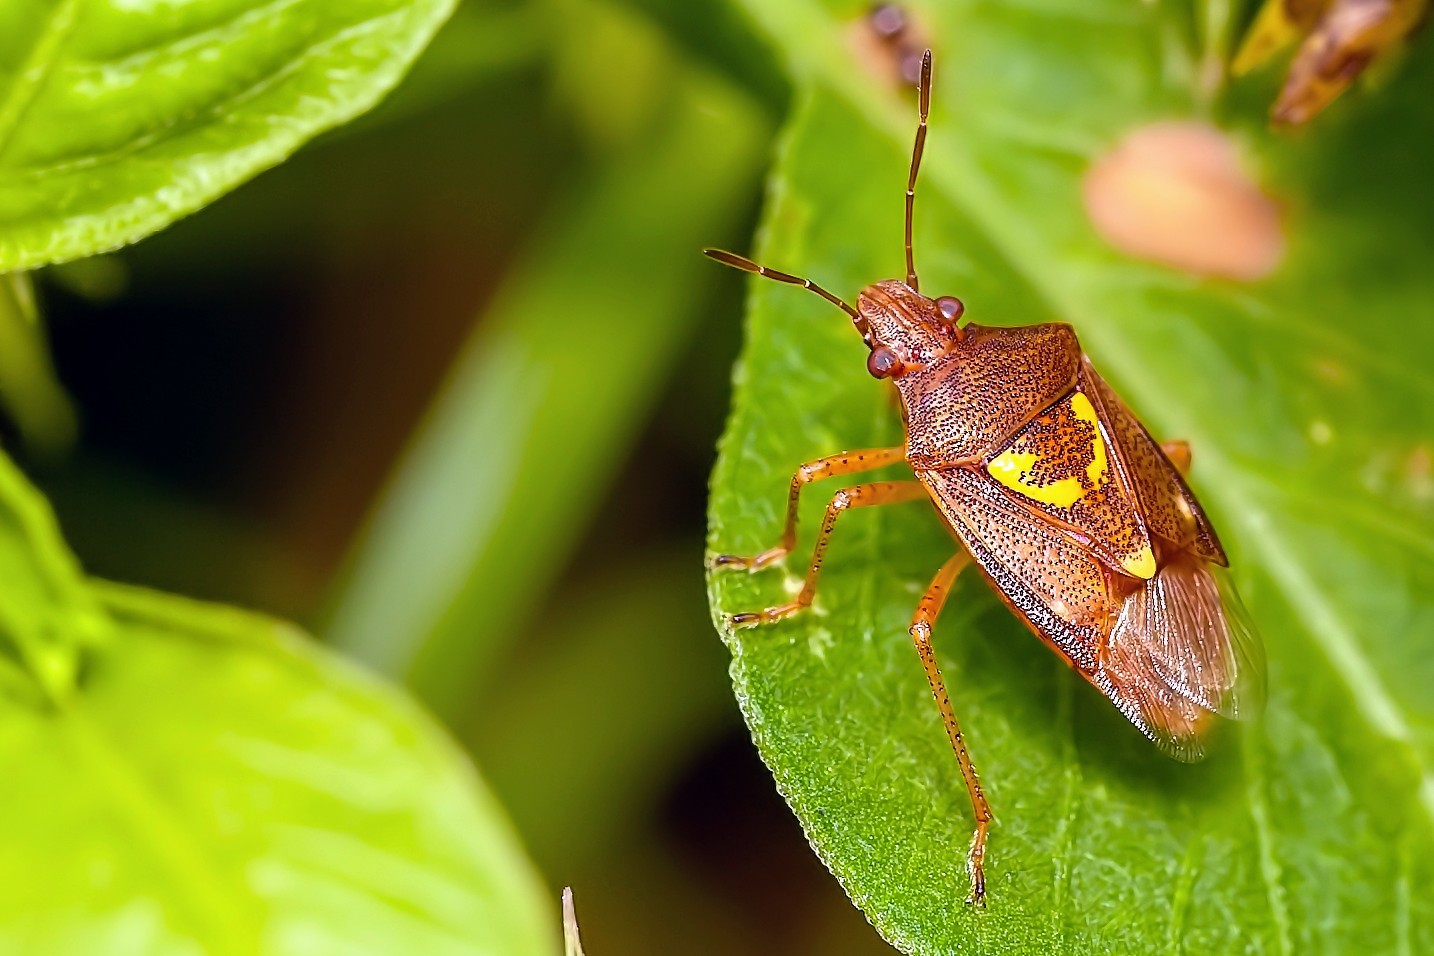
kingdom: Animalia
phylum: Arthropoda
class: Insecta
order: Hemiptera
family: Pentatomidae
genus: Oebalus
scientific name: Oebalus insularis
